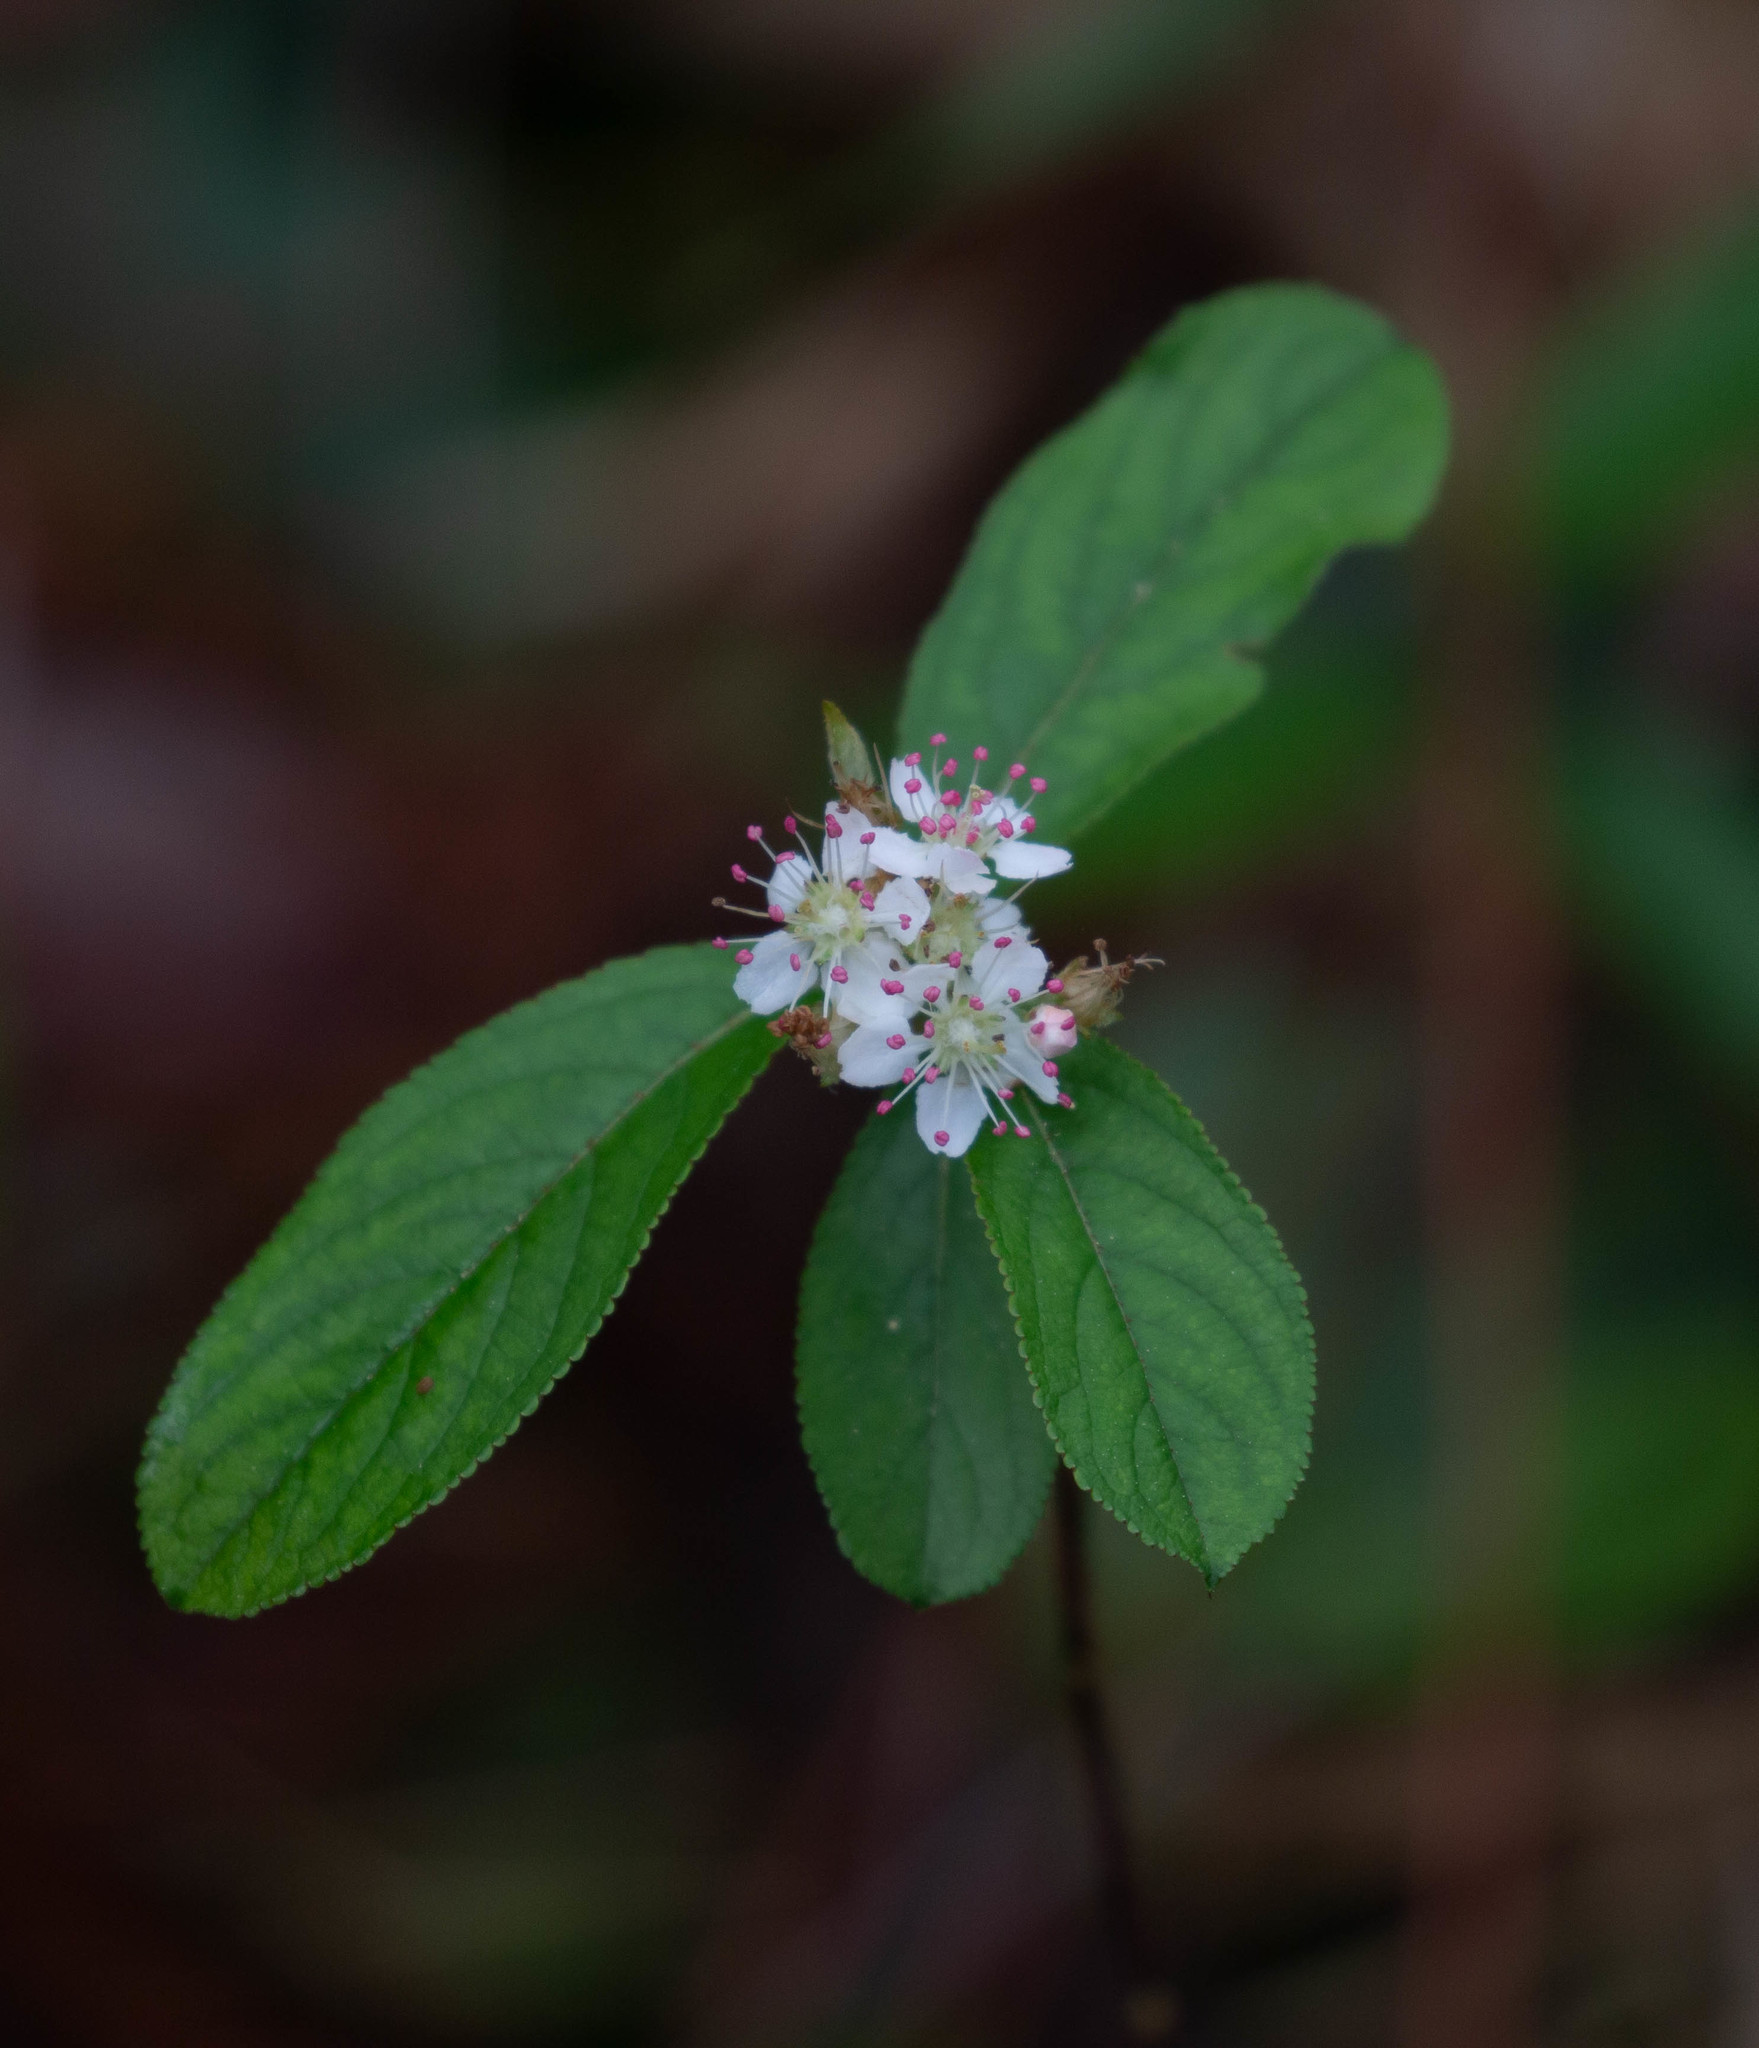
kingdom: Plantae
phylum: Tracheophyta
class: Magnoliopsida
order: Rosales
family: Rosaceae
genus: Aronia
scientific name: Aronia arbutifolia
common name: Red chokeberry
